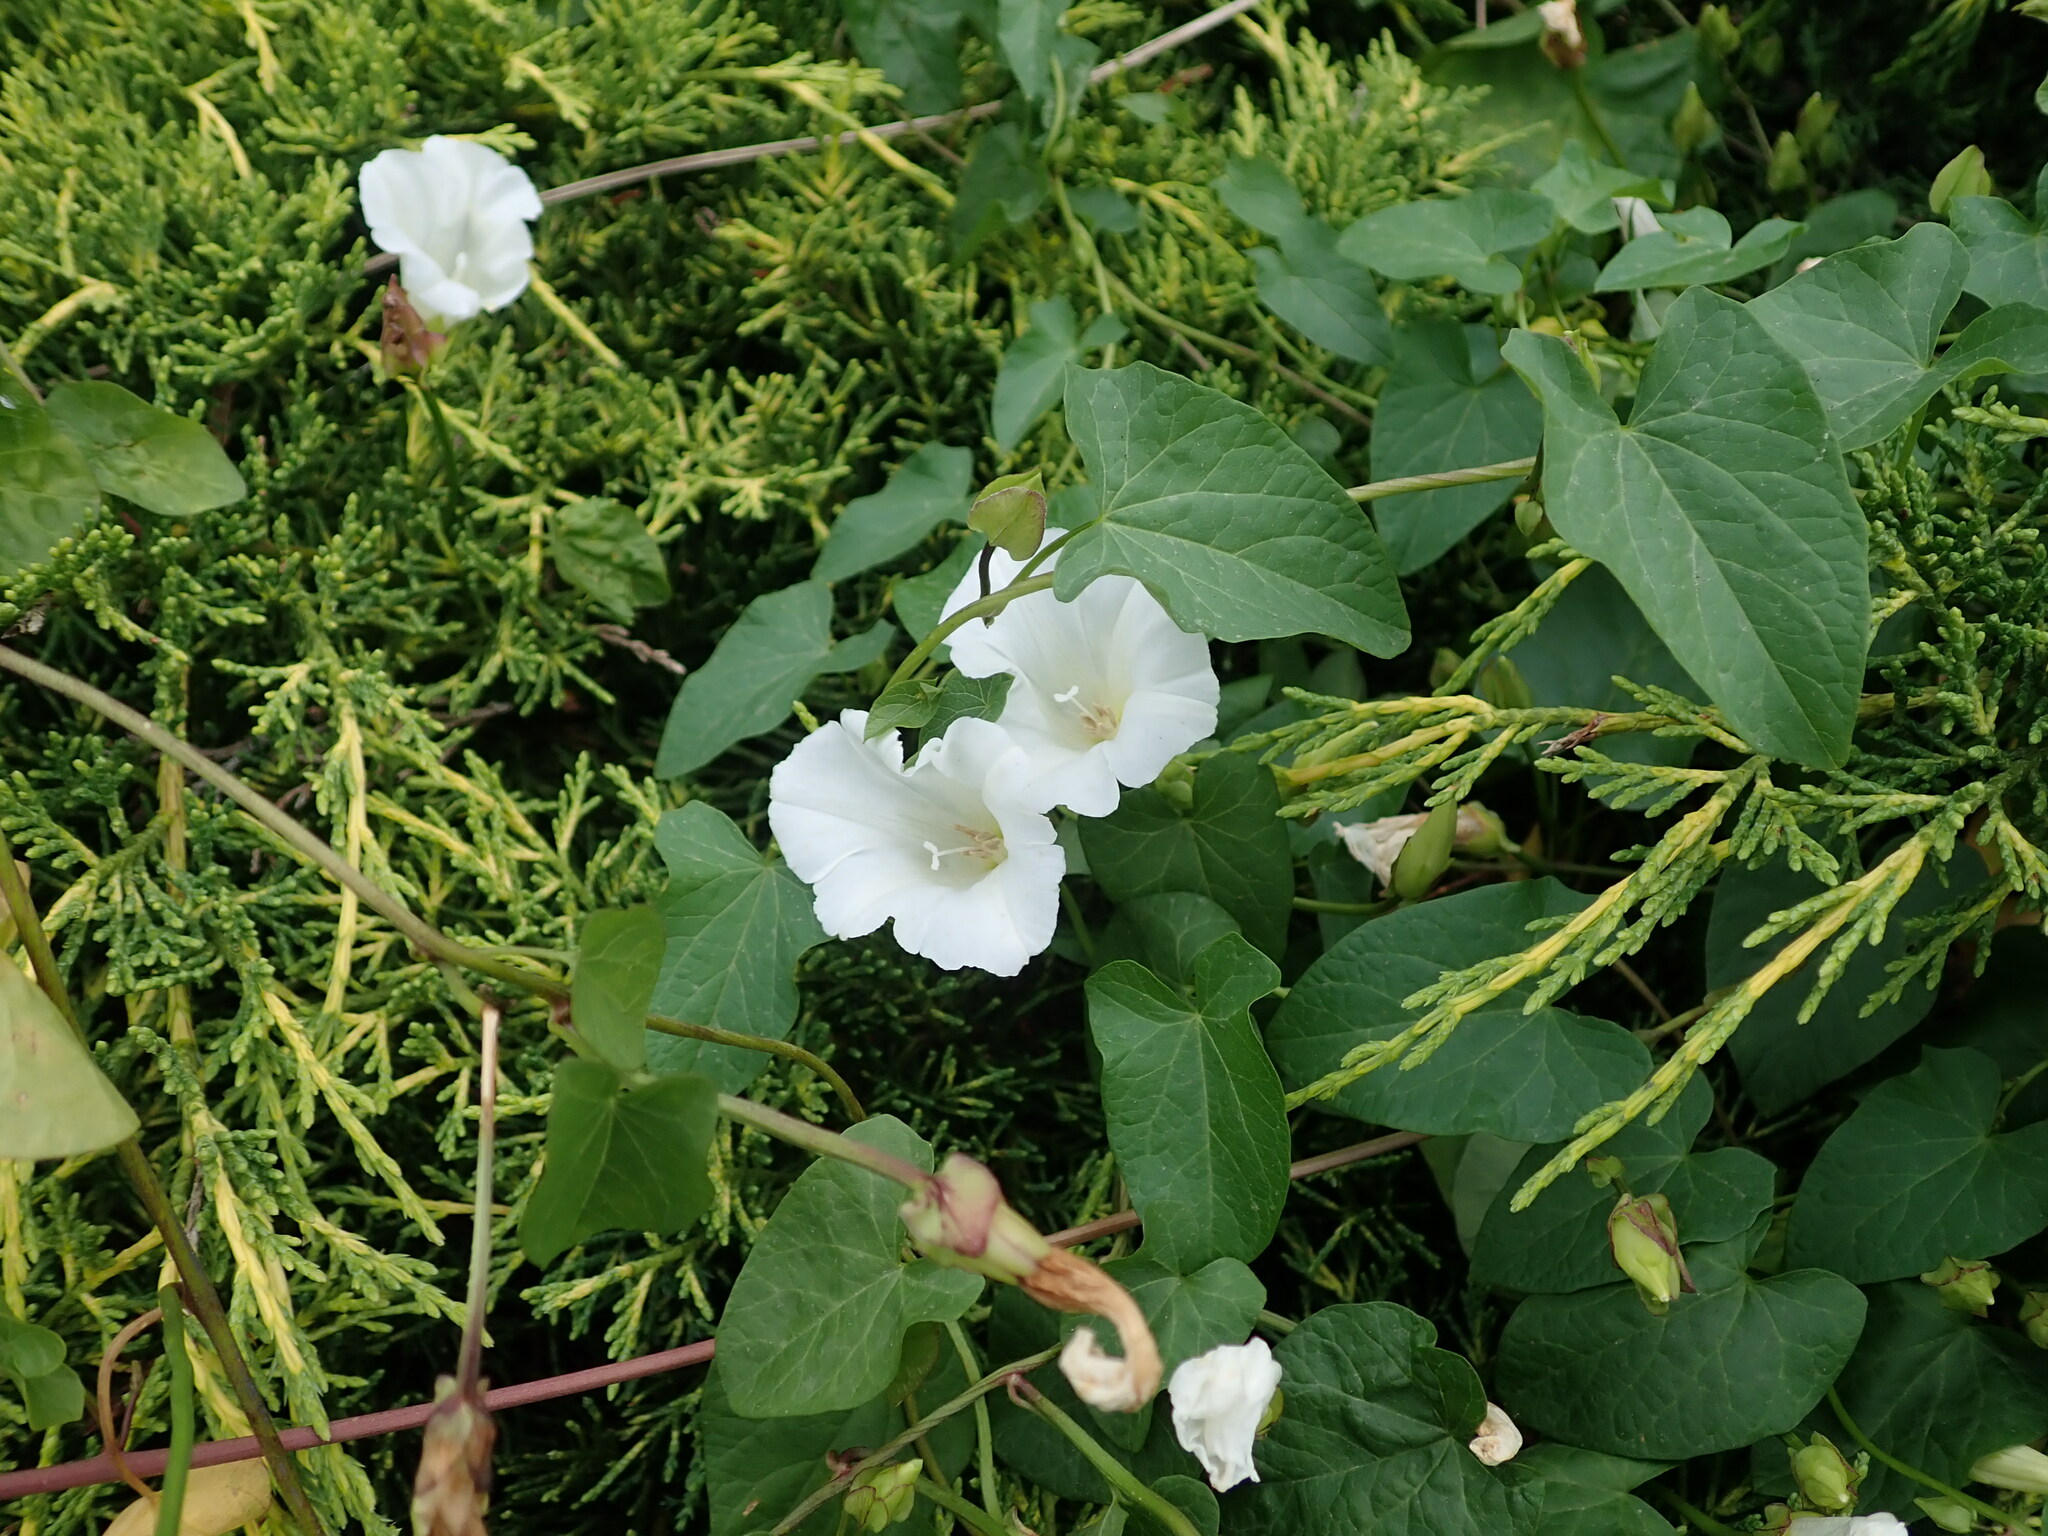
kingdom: Plantae
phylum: Tracheophyta
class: Magnoliopsida
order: Solanales
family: Convolvulaceae
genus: Calystegia
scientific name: Calystegia sepium
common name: Hedge bindweed
